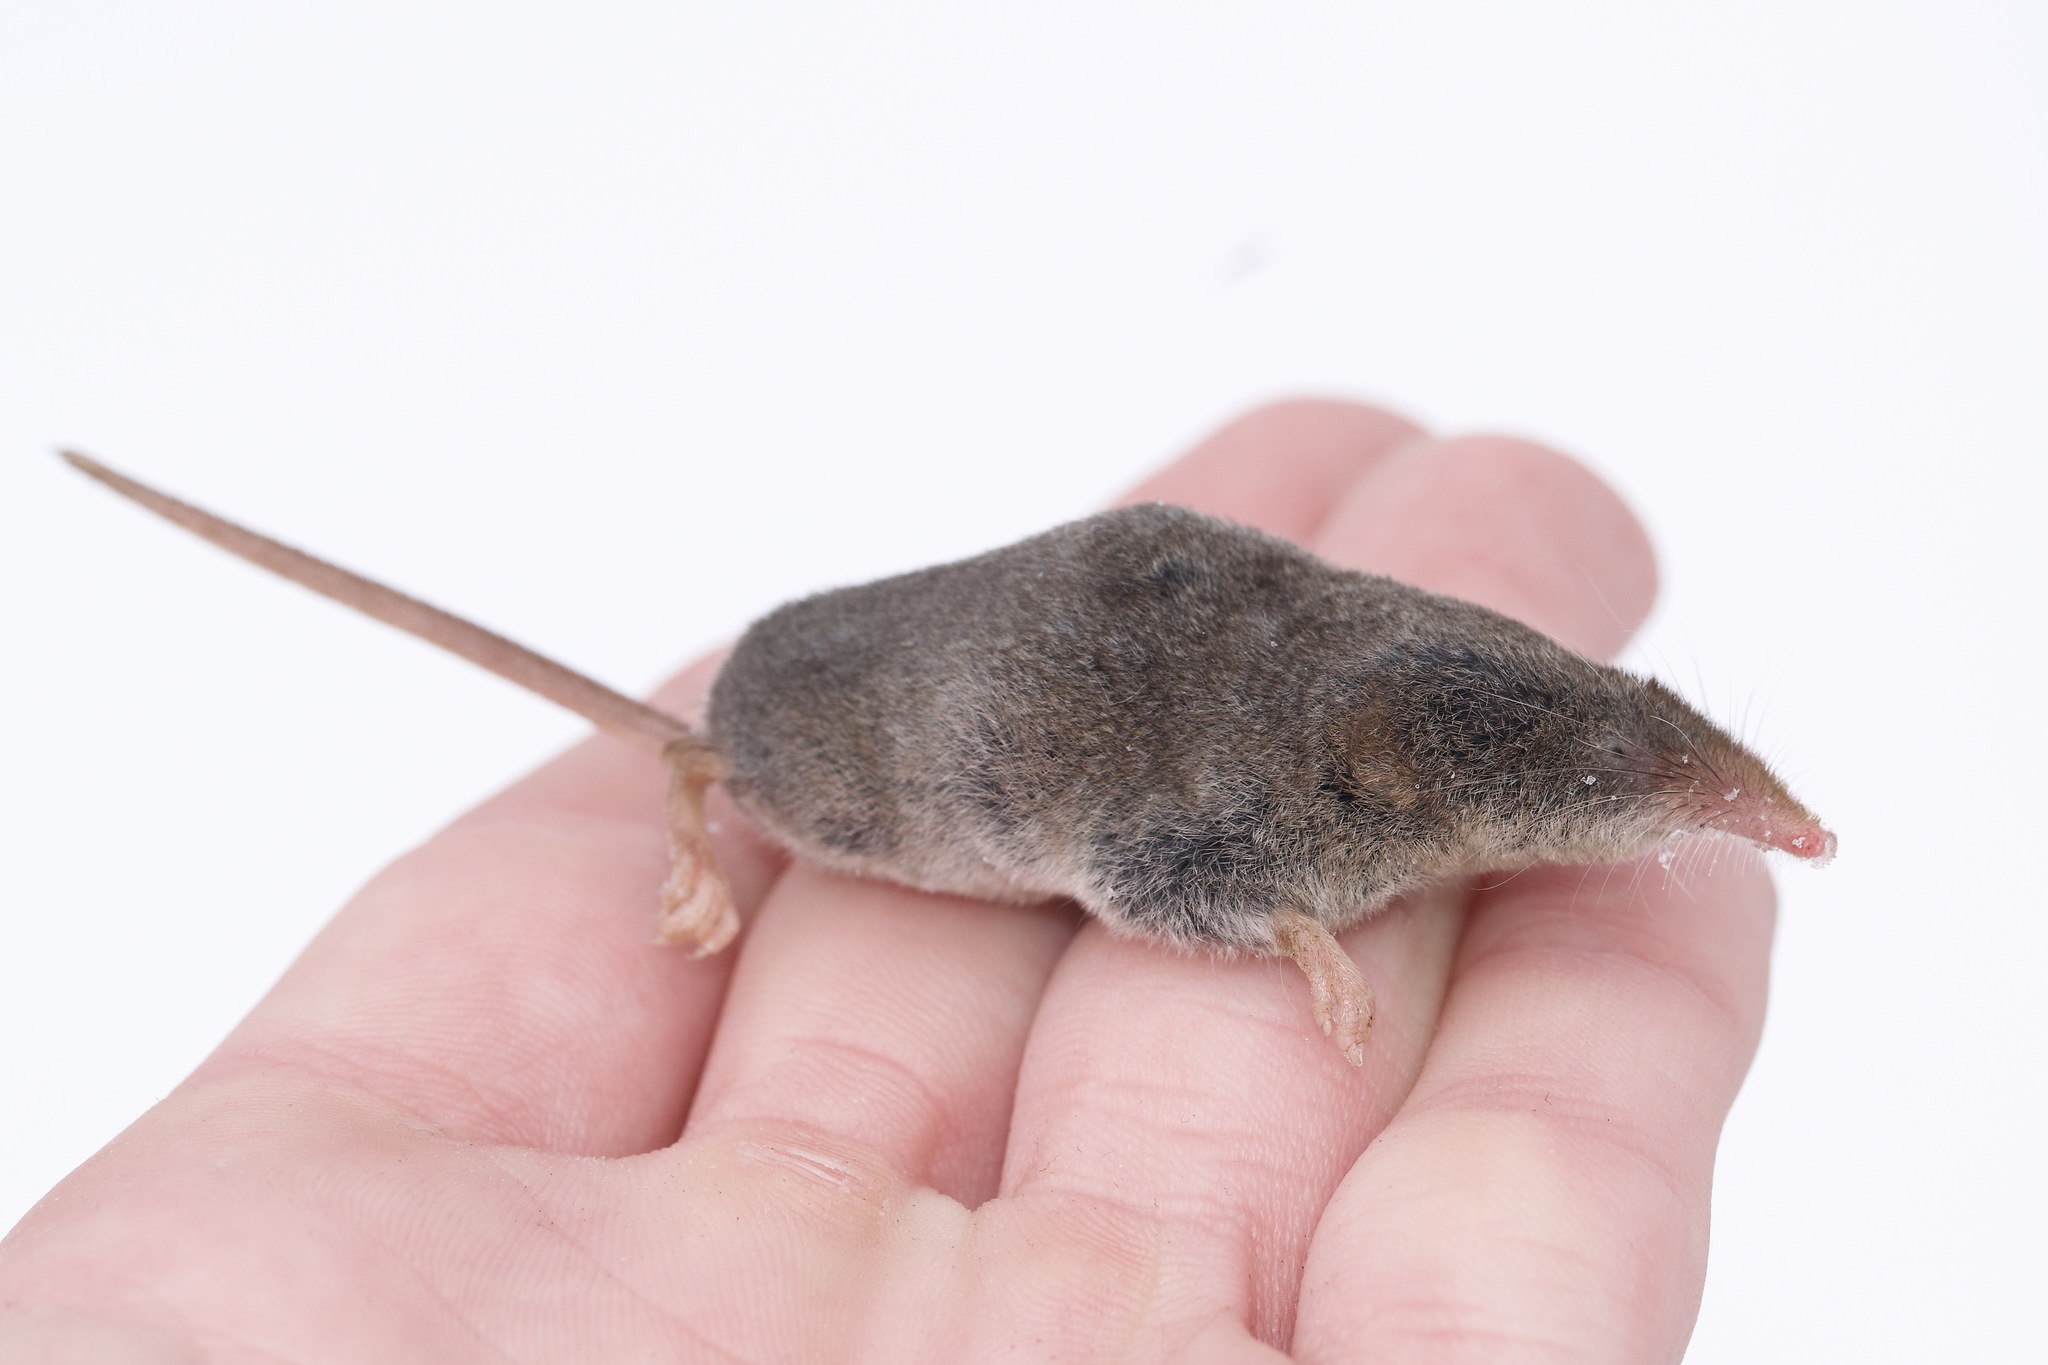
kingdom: Animalia
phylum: Chordata
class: Mammalia
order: Soricomorpha
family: Soricidae
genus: Sorex
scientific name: Sorex cinereus
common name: Cinereus shrew
